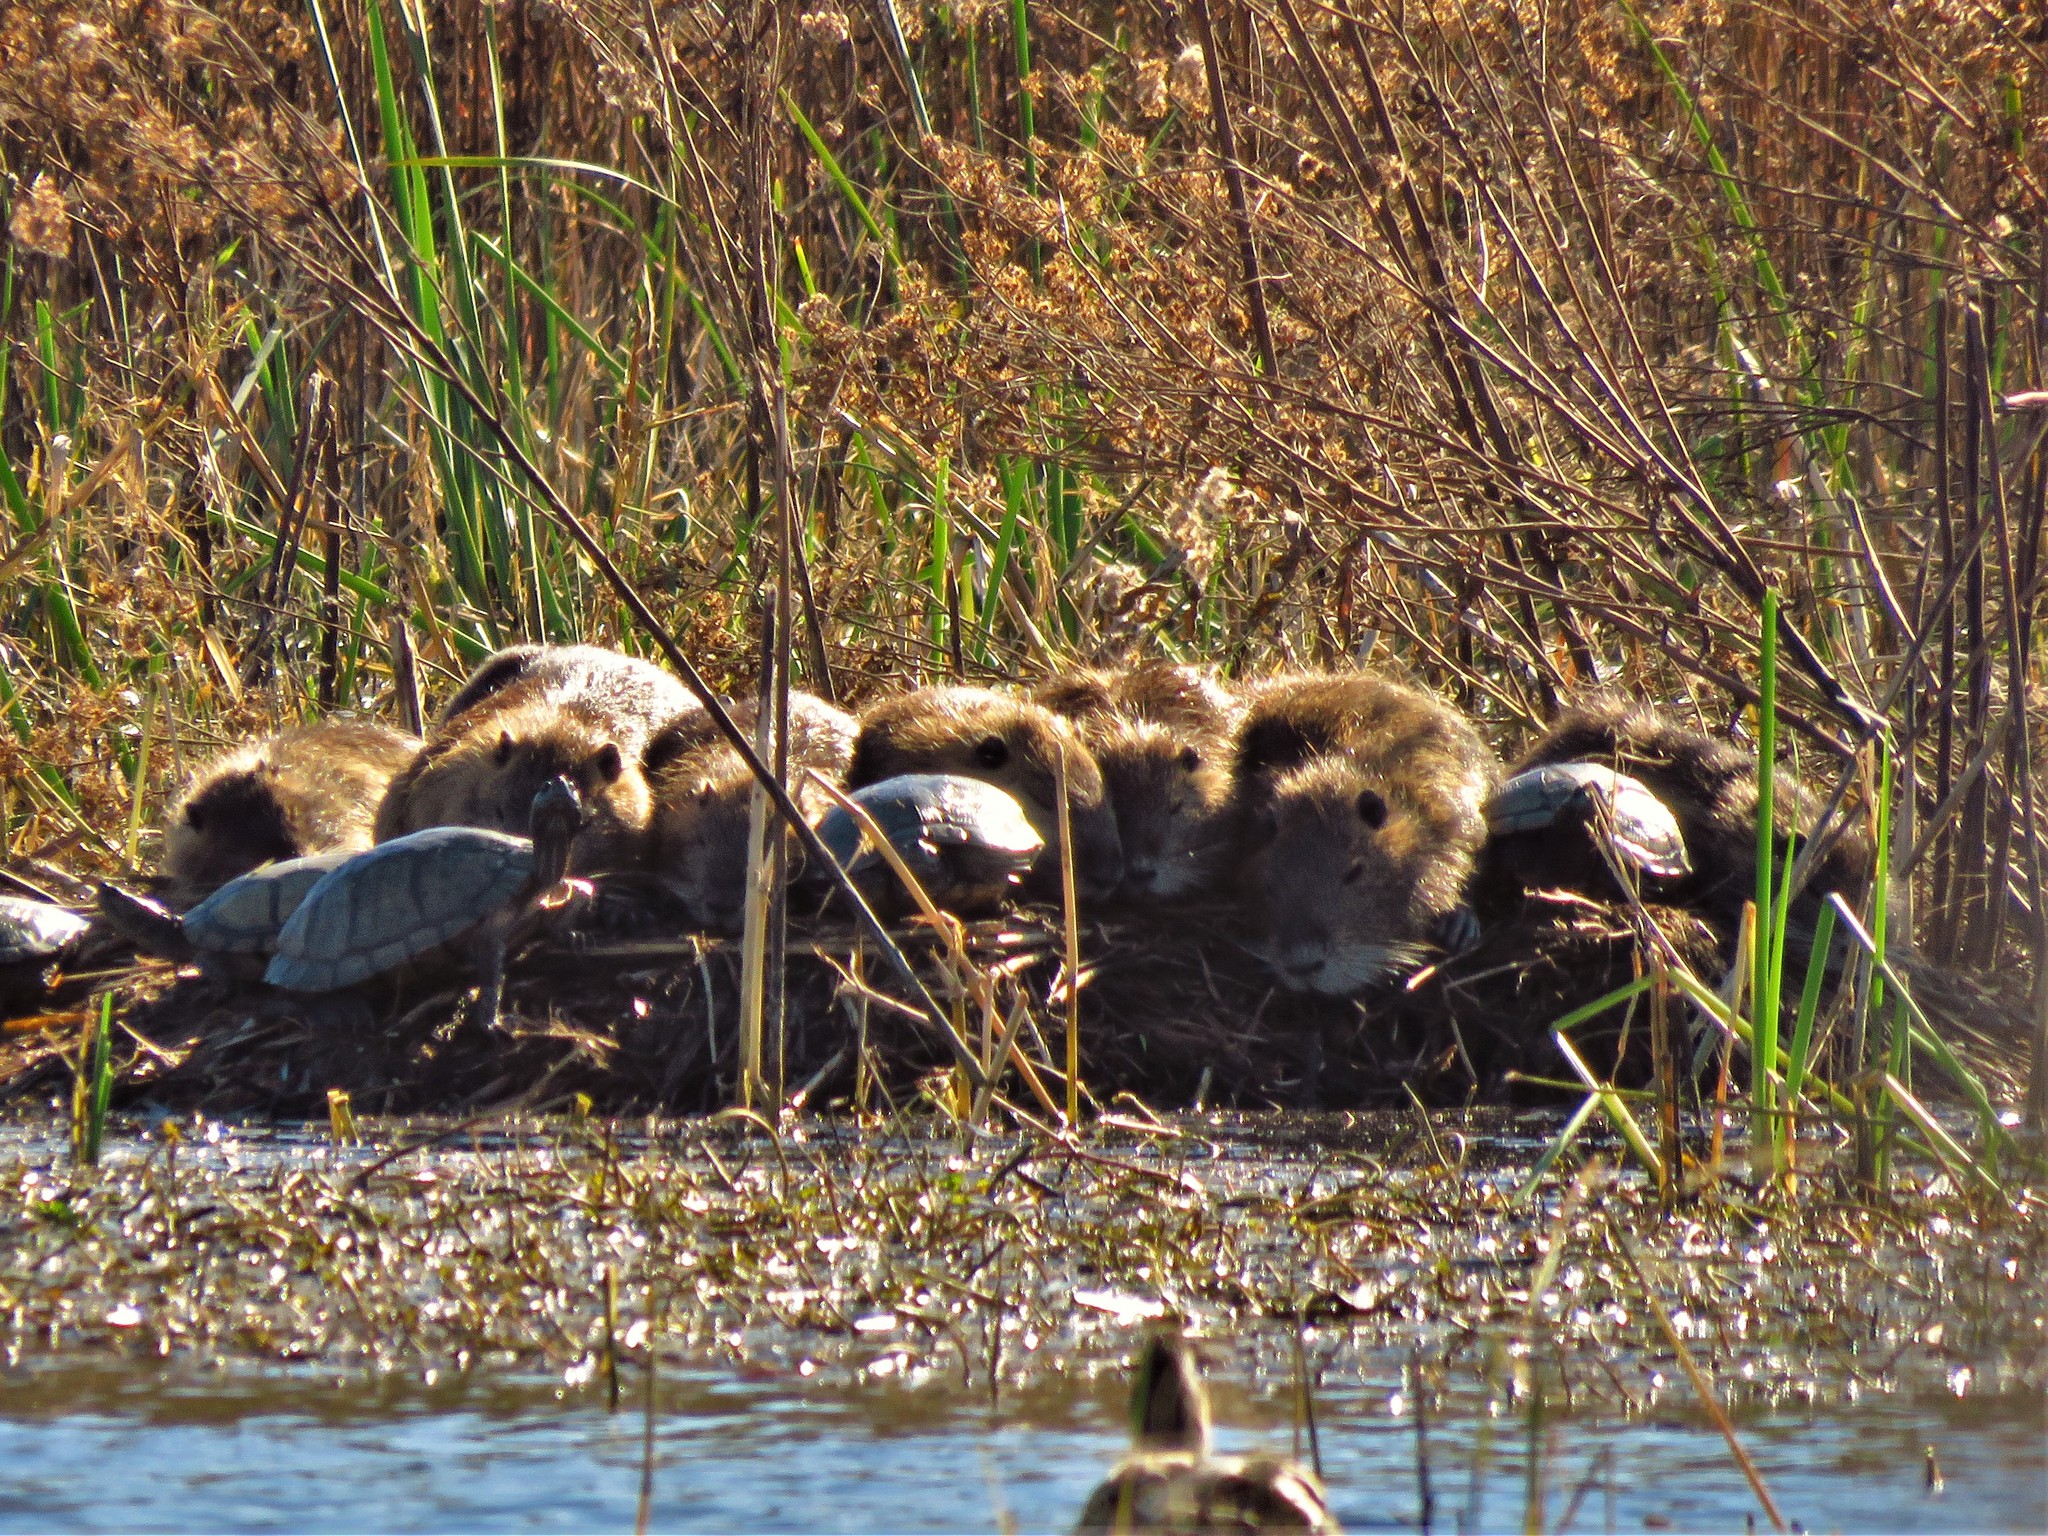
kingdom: Animalia
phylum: Chordata
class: Mammalia
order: Rodentia
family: Myocastoridae
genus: Myocastor
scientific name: Myocastor coypus
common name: Coypu
